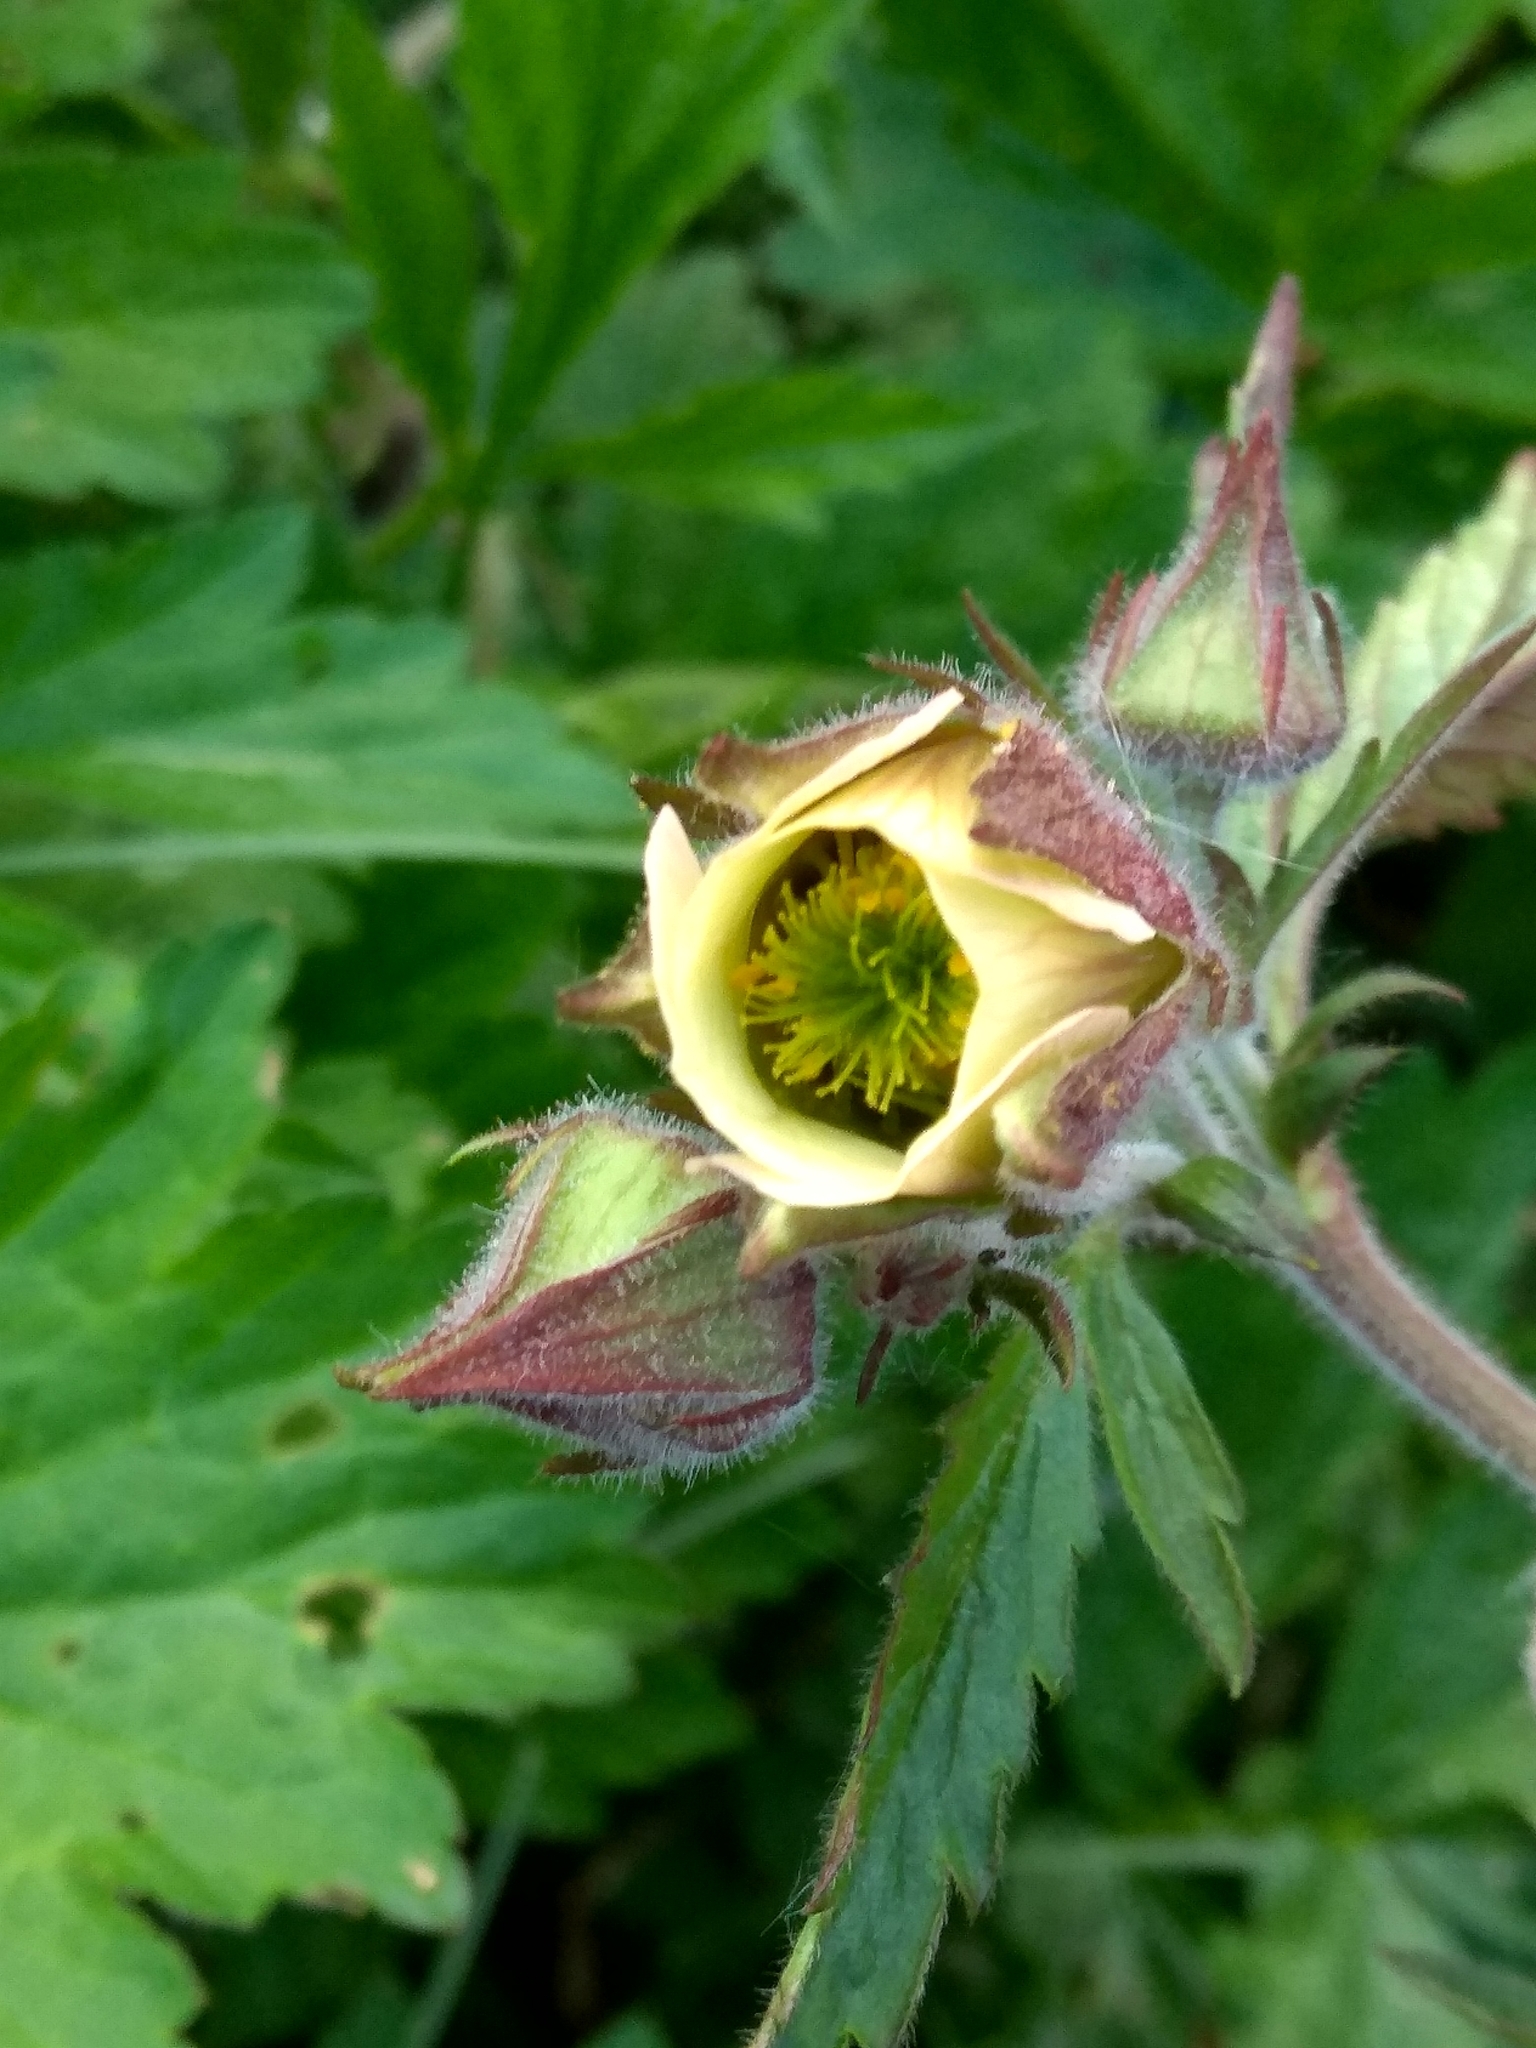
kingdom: Plantae
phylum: Tracheophyta
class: Magnoliopsida
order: Rosales
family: Rosaceae
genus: Geum
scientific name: Geum rivale
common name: Water avens
